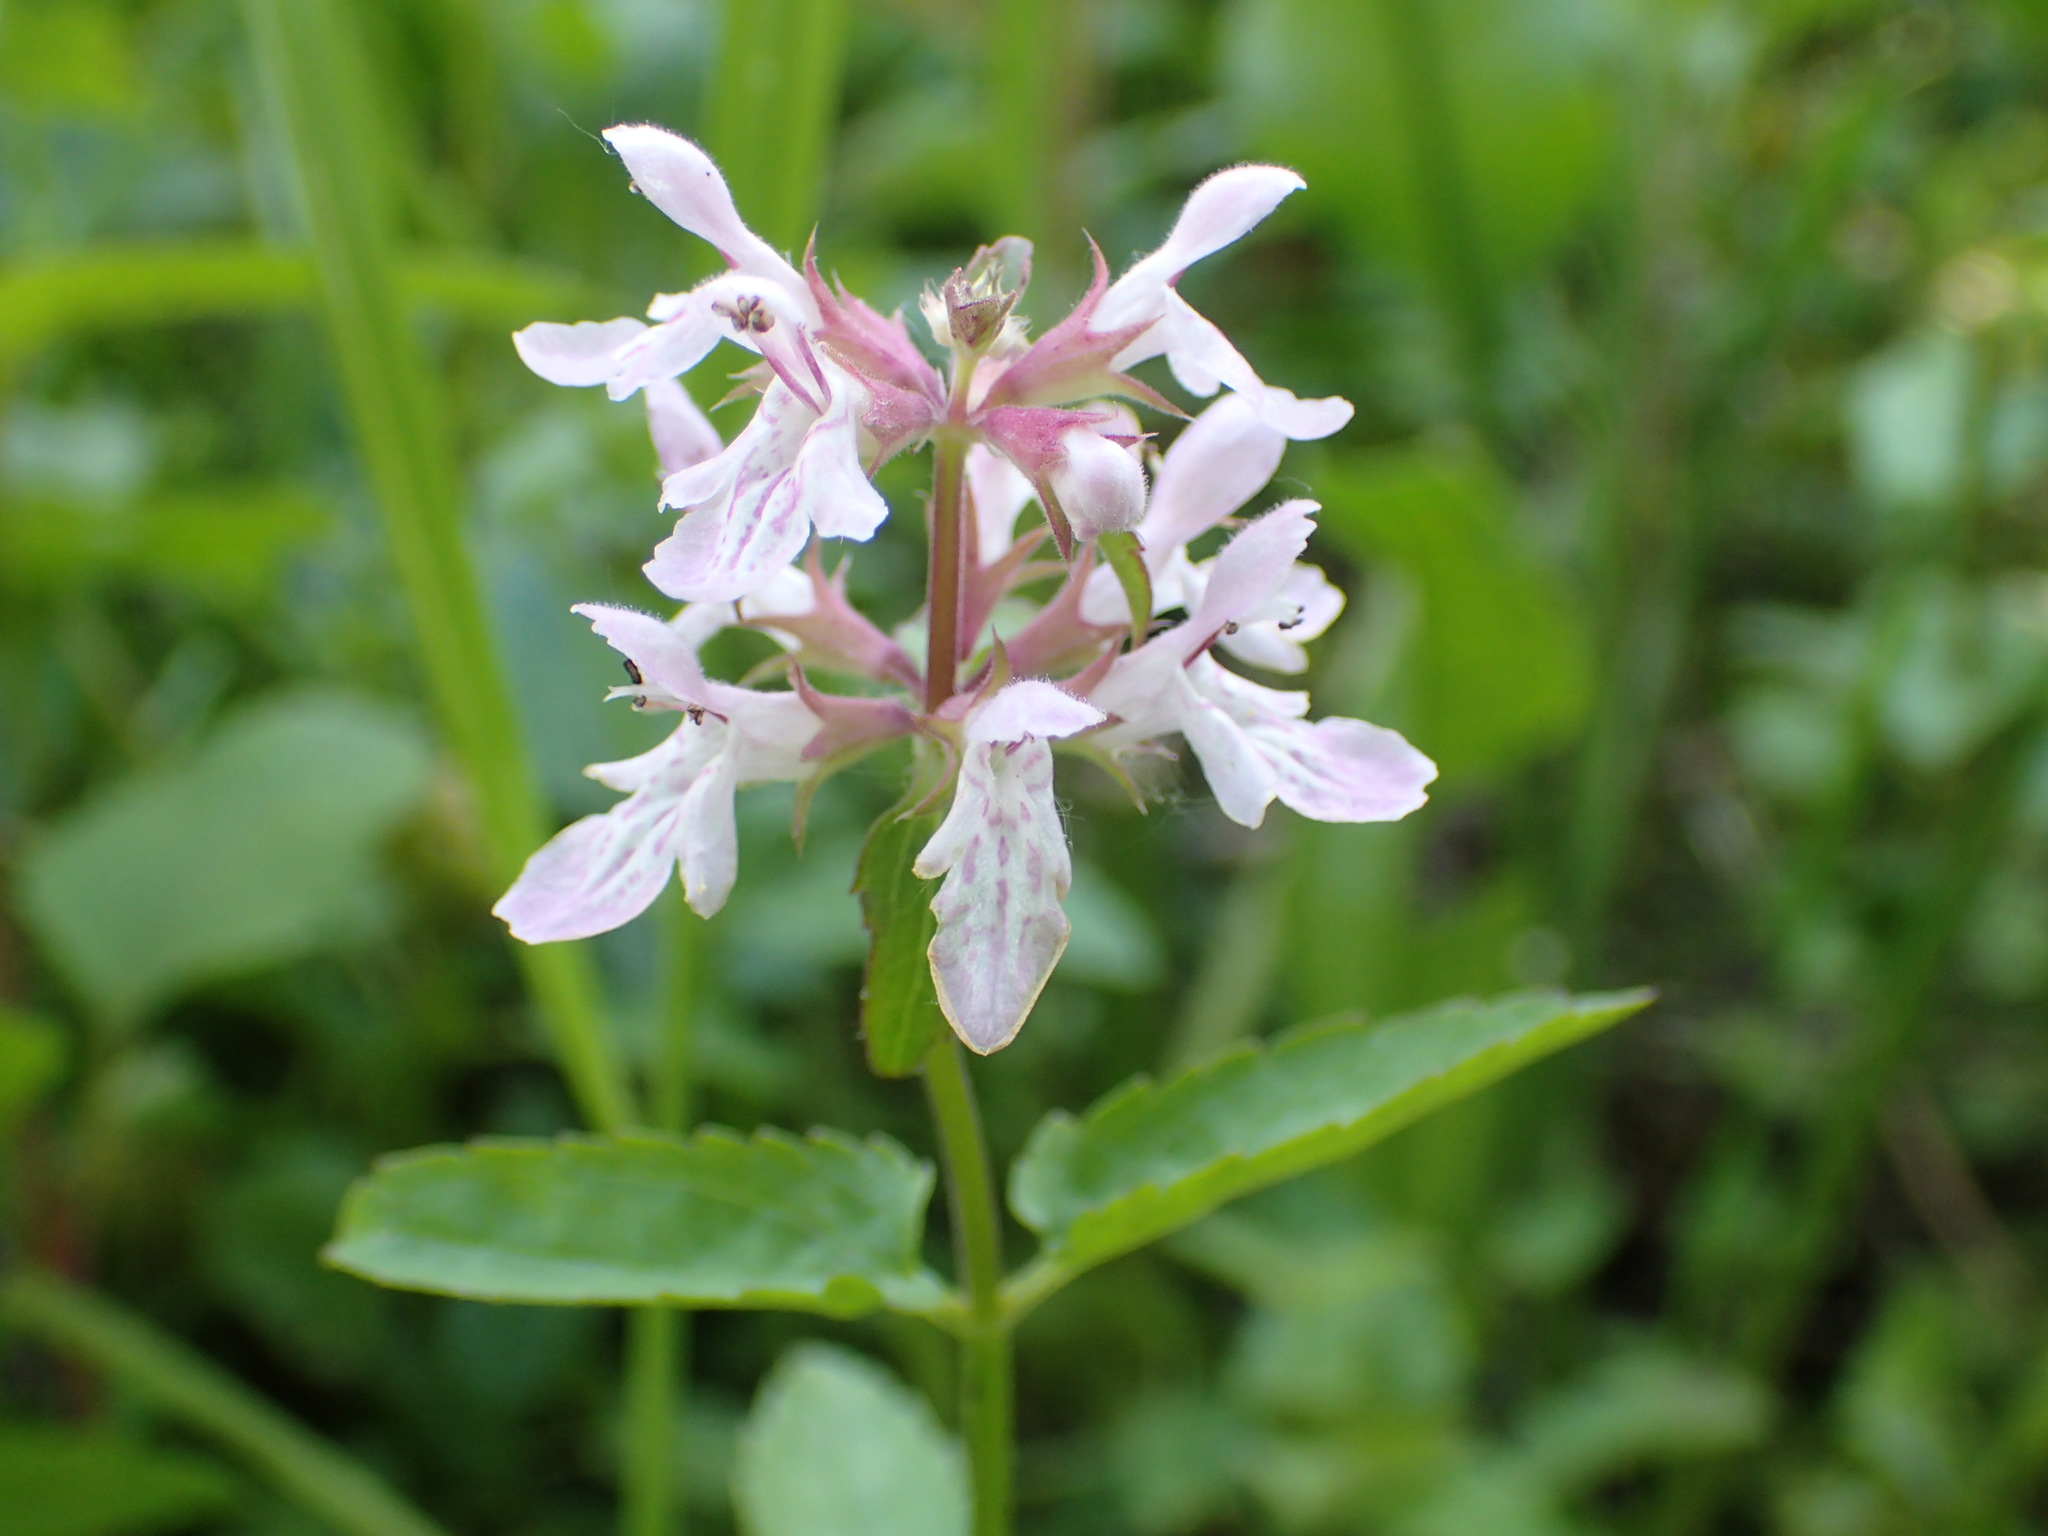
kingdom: Plantae
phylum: Tracheophyta
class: Magnoliopsida
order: Lamiales
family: Lamiaceae
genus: Stachys
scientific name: Stachys floridana
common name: Florida betony
